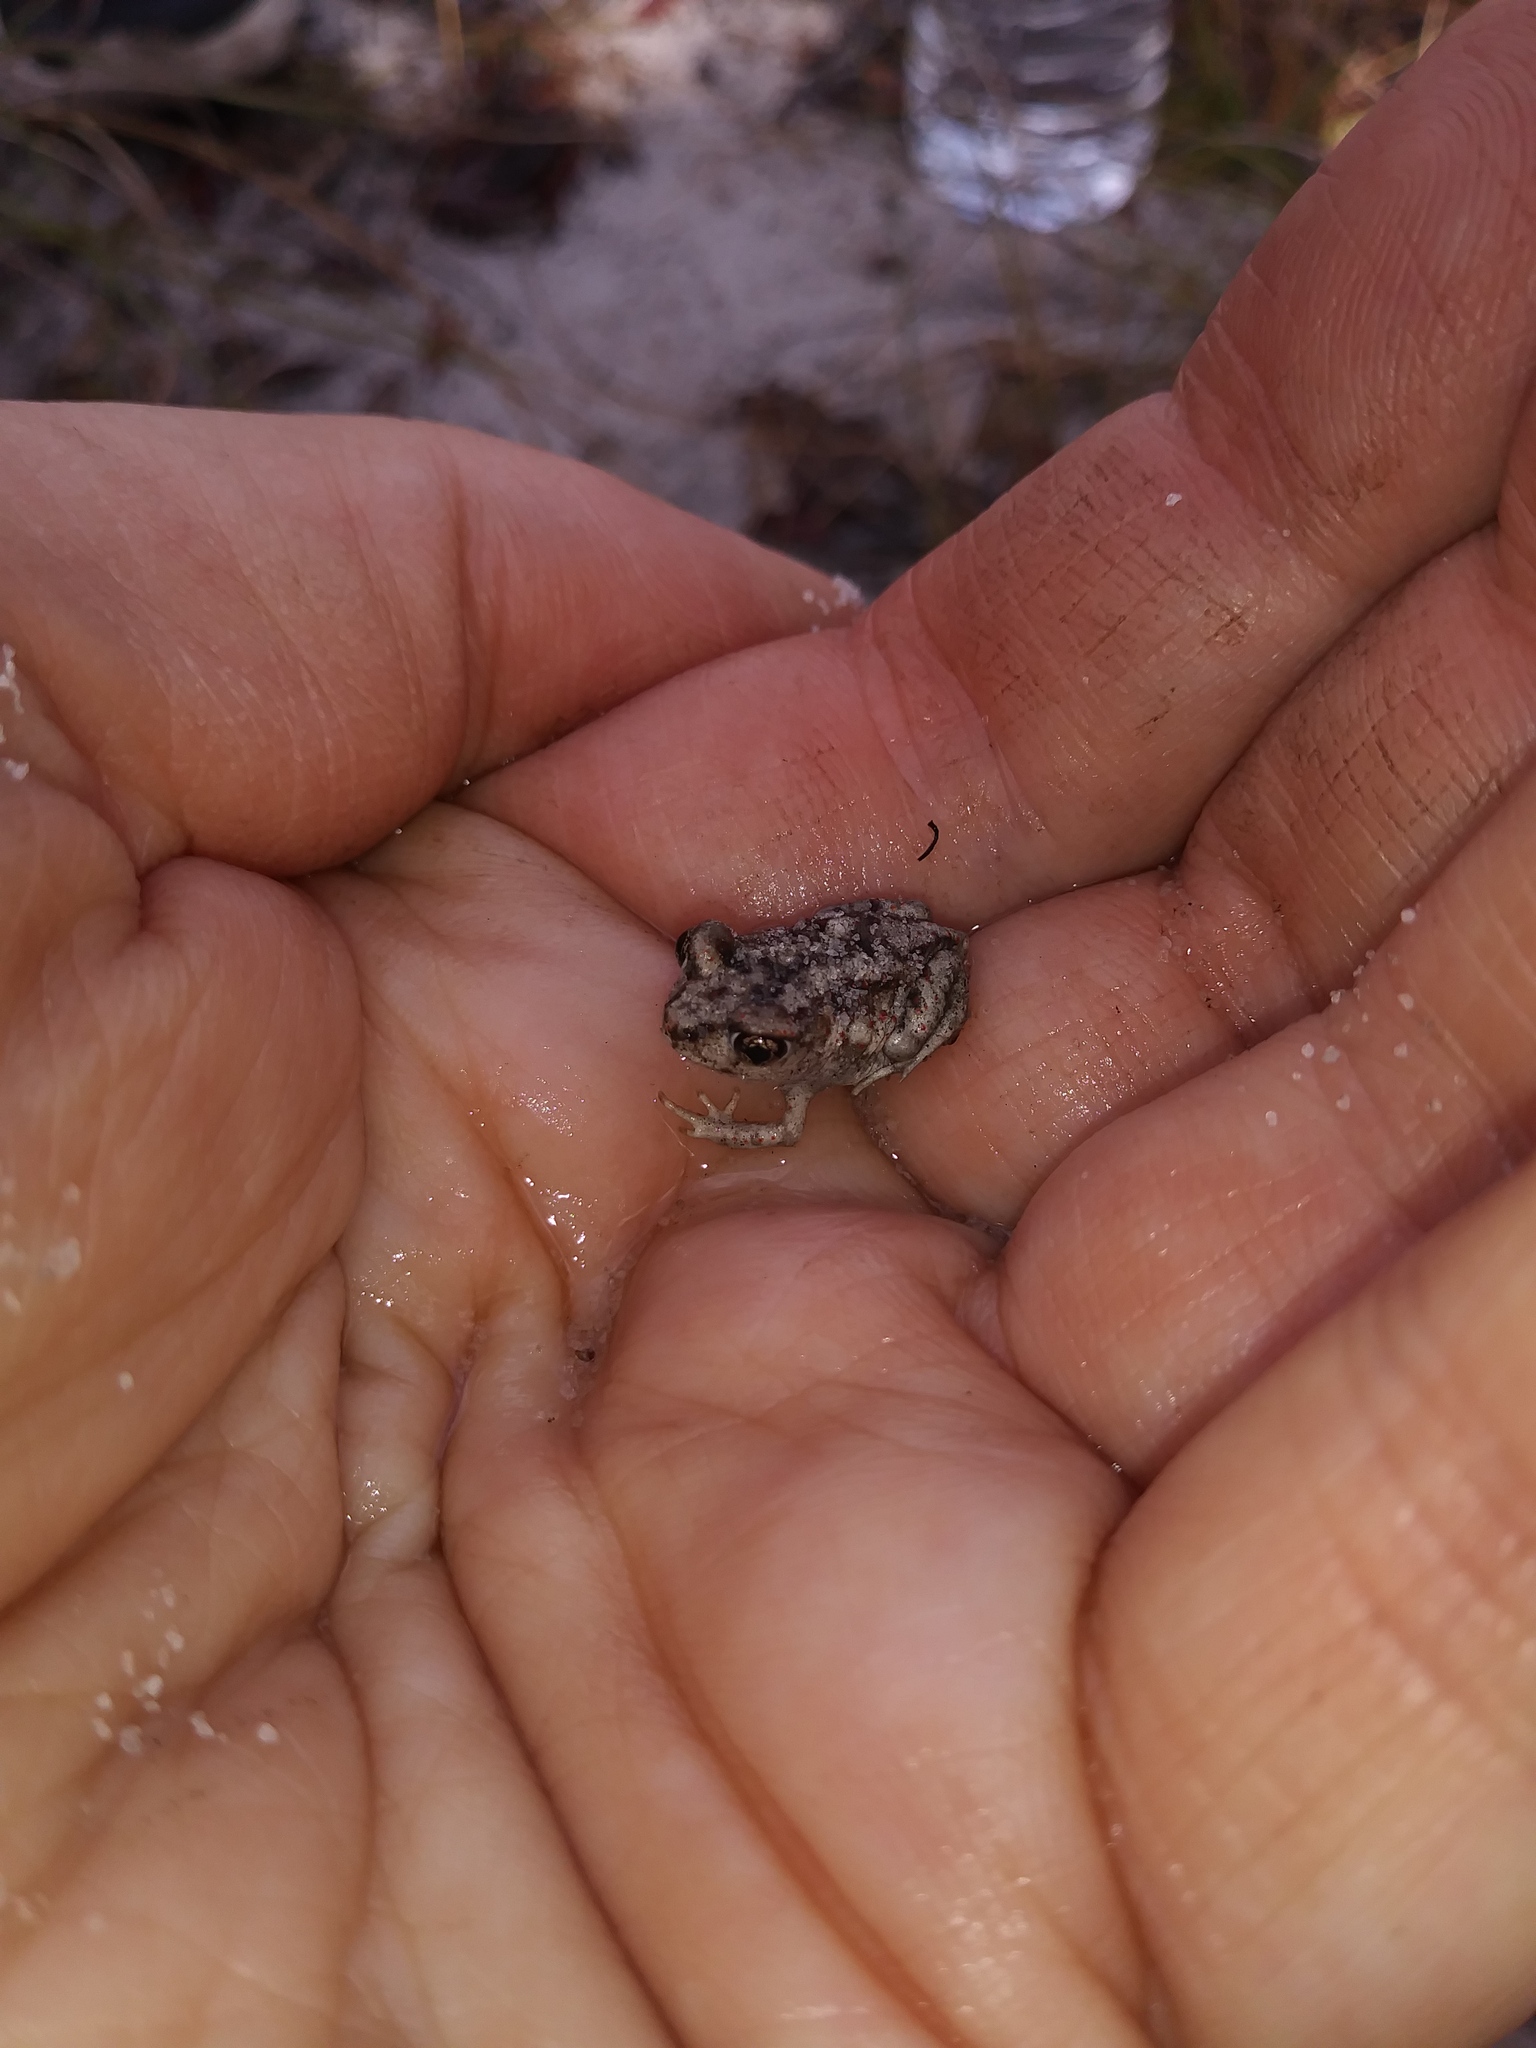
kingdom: Animalia
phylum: Chordata
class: Amphibia
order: Anura
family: Scaphiopodidae
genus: Scaphiopus
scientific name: Scaphiopus holbrookii
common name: Eastern spadefoot toad
